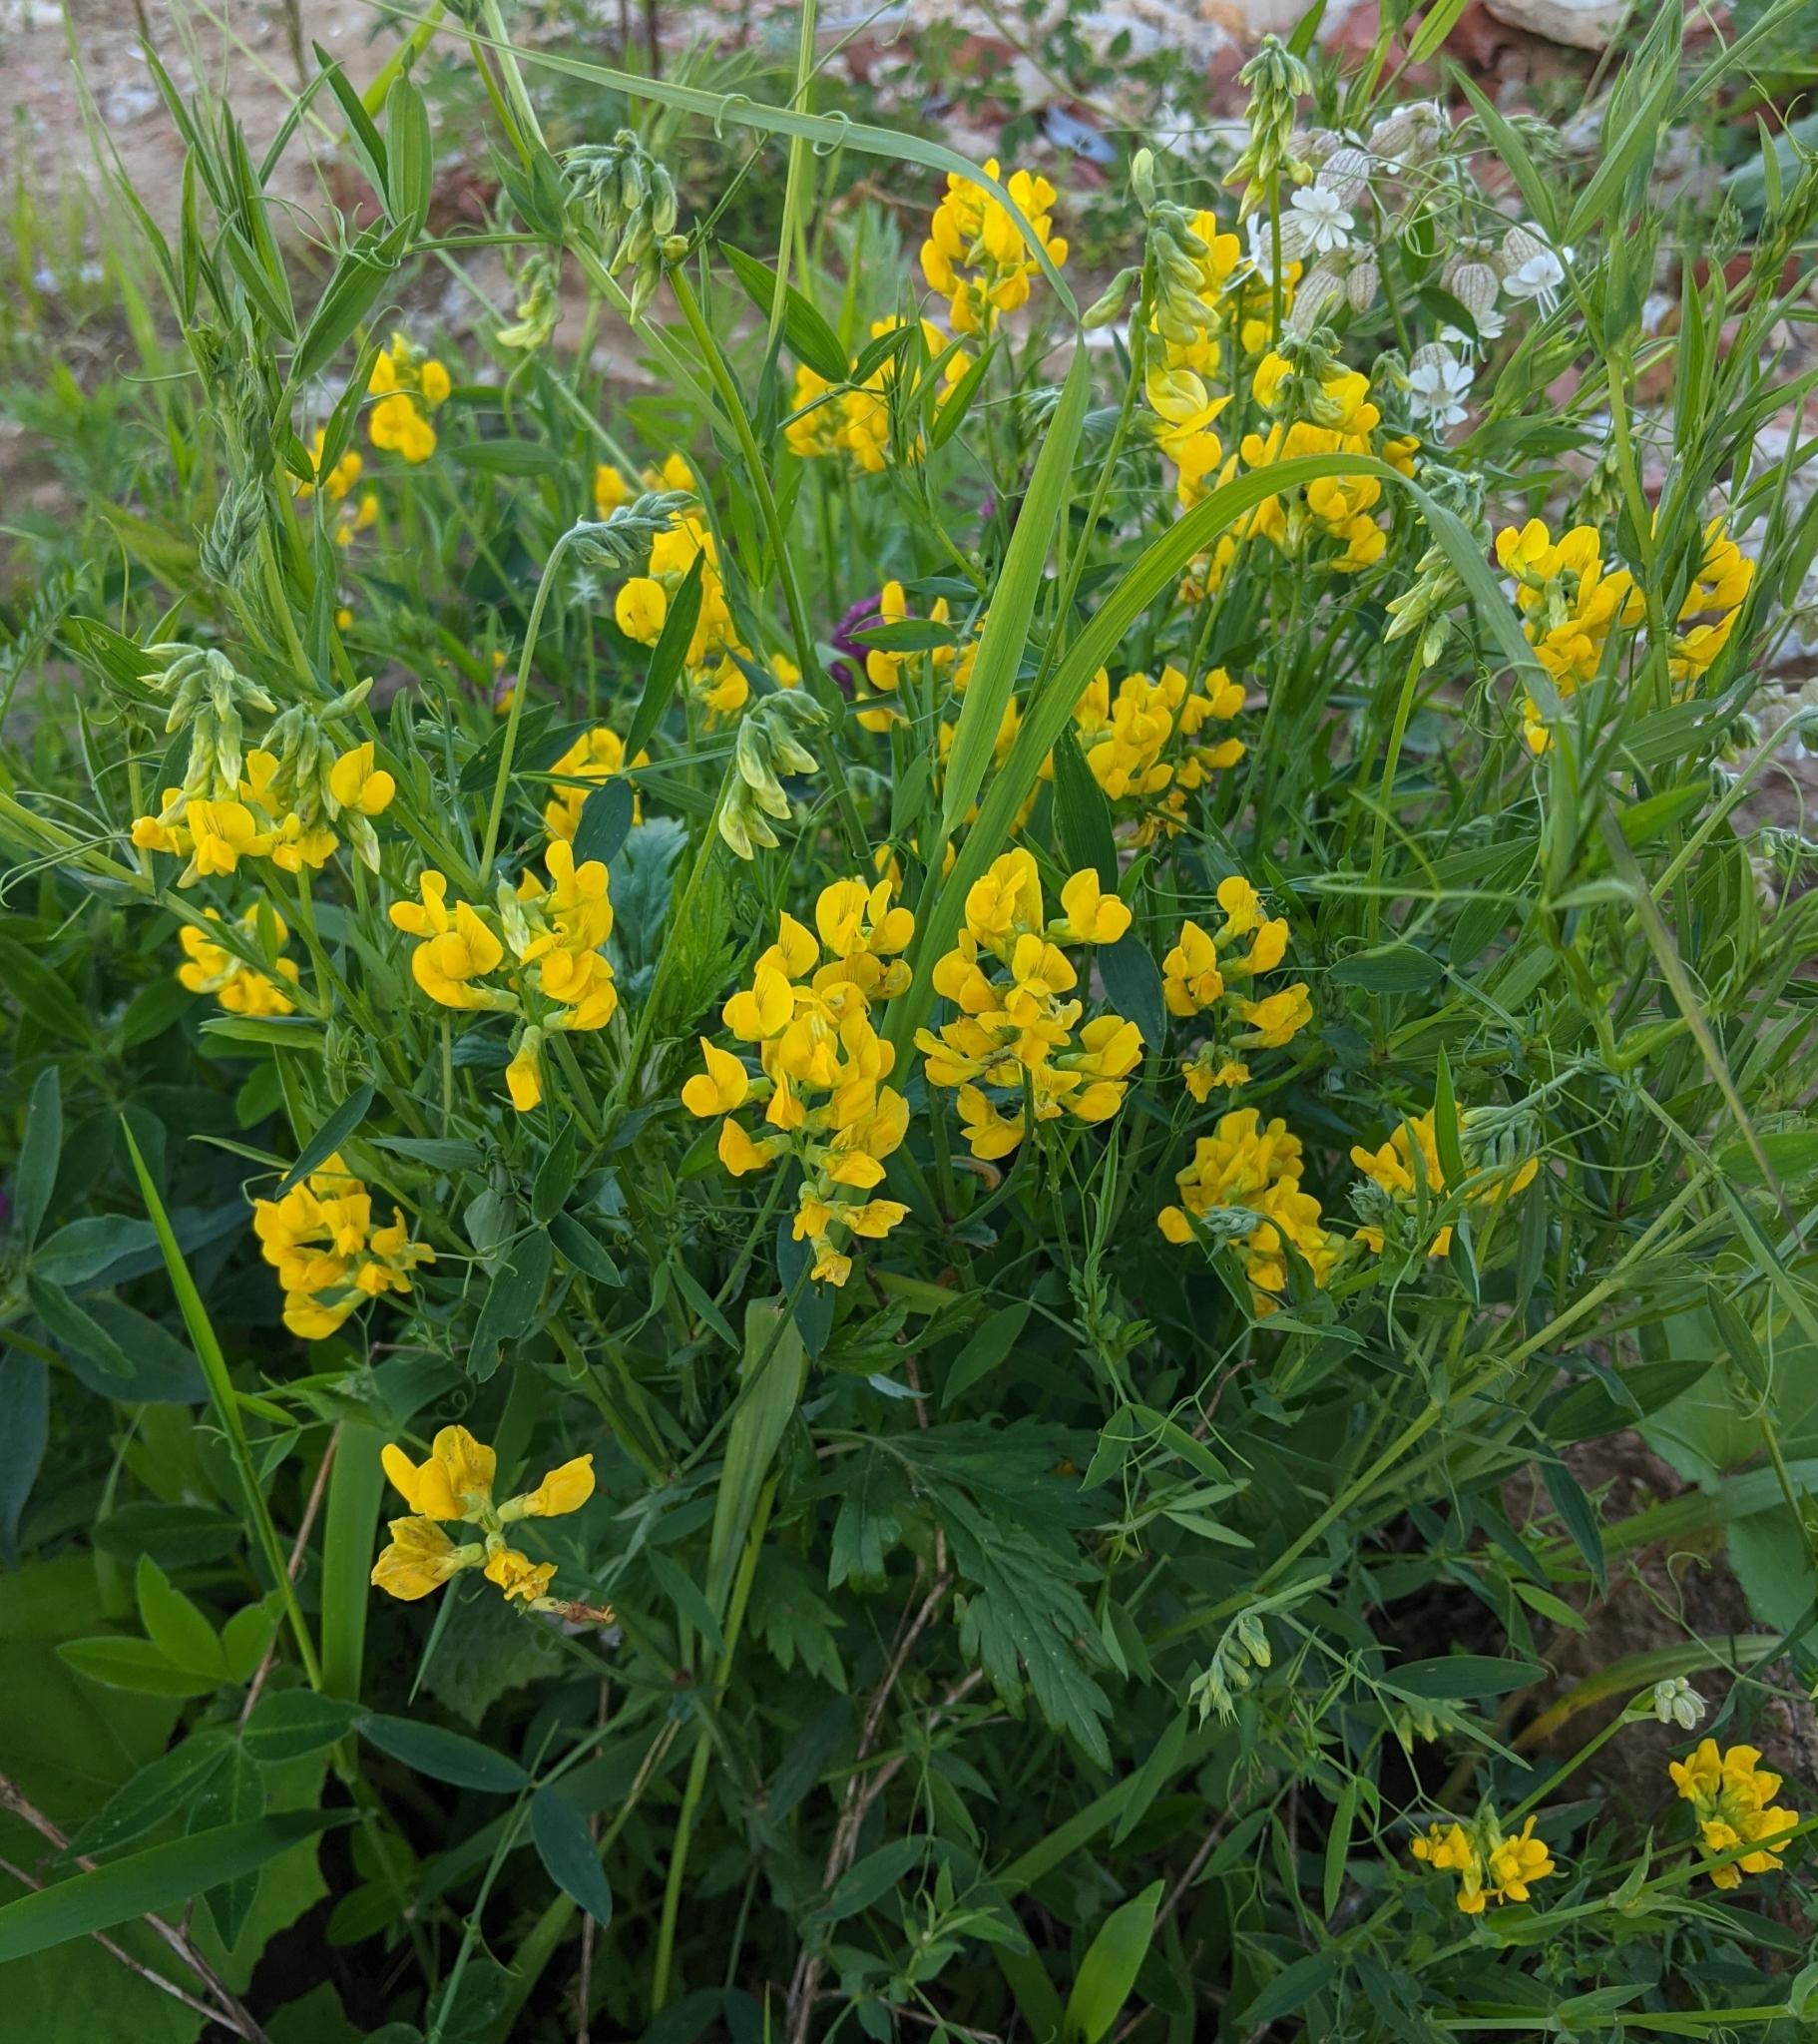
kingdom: Plantae
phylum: Tracheophyta
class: Magnoliopsida
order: Fabales
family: Fabaceae
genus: Lathyrus
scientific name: Lathyrus pratensis
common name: Meadow vetchling
